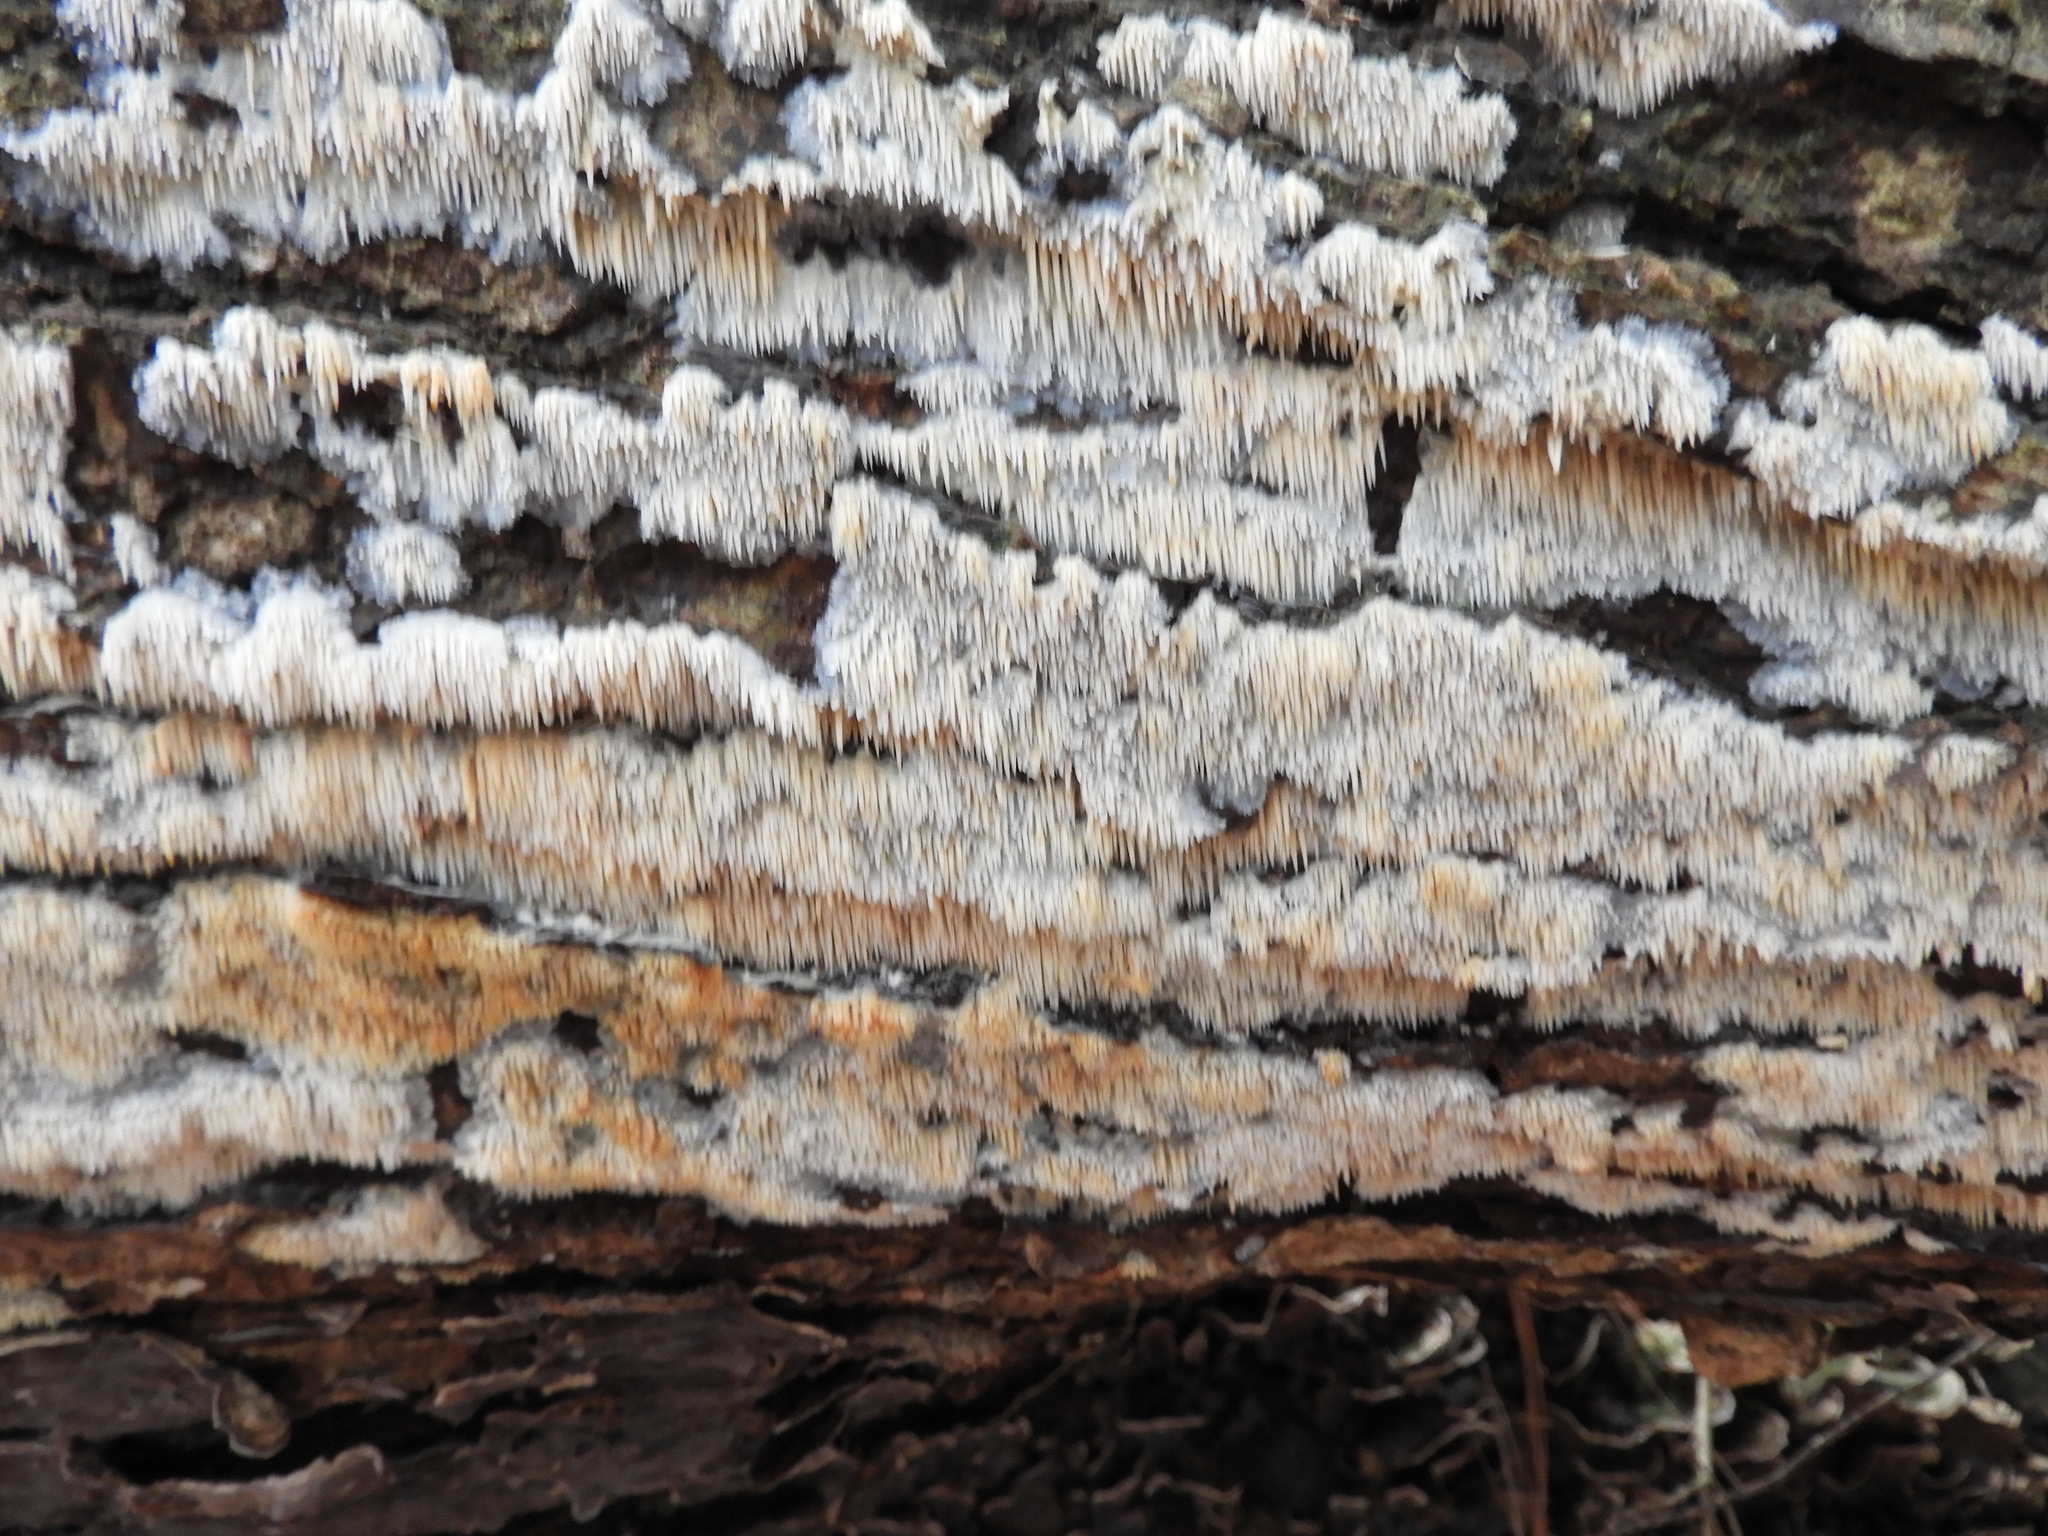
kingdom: Fungi
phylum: Basidiomycota
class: Agaricomycetes
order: Agaricales
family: Radulomycetaceae
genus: Radulomyces
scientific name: Radulomyces copelandii
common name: Asian beauty
